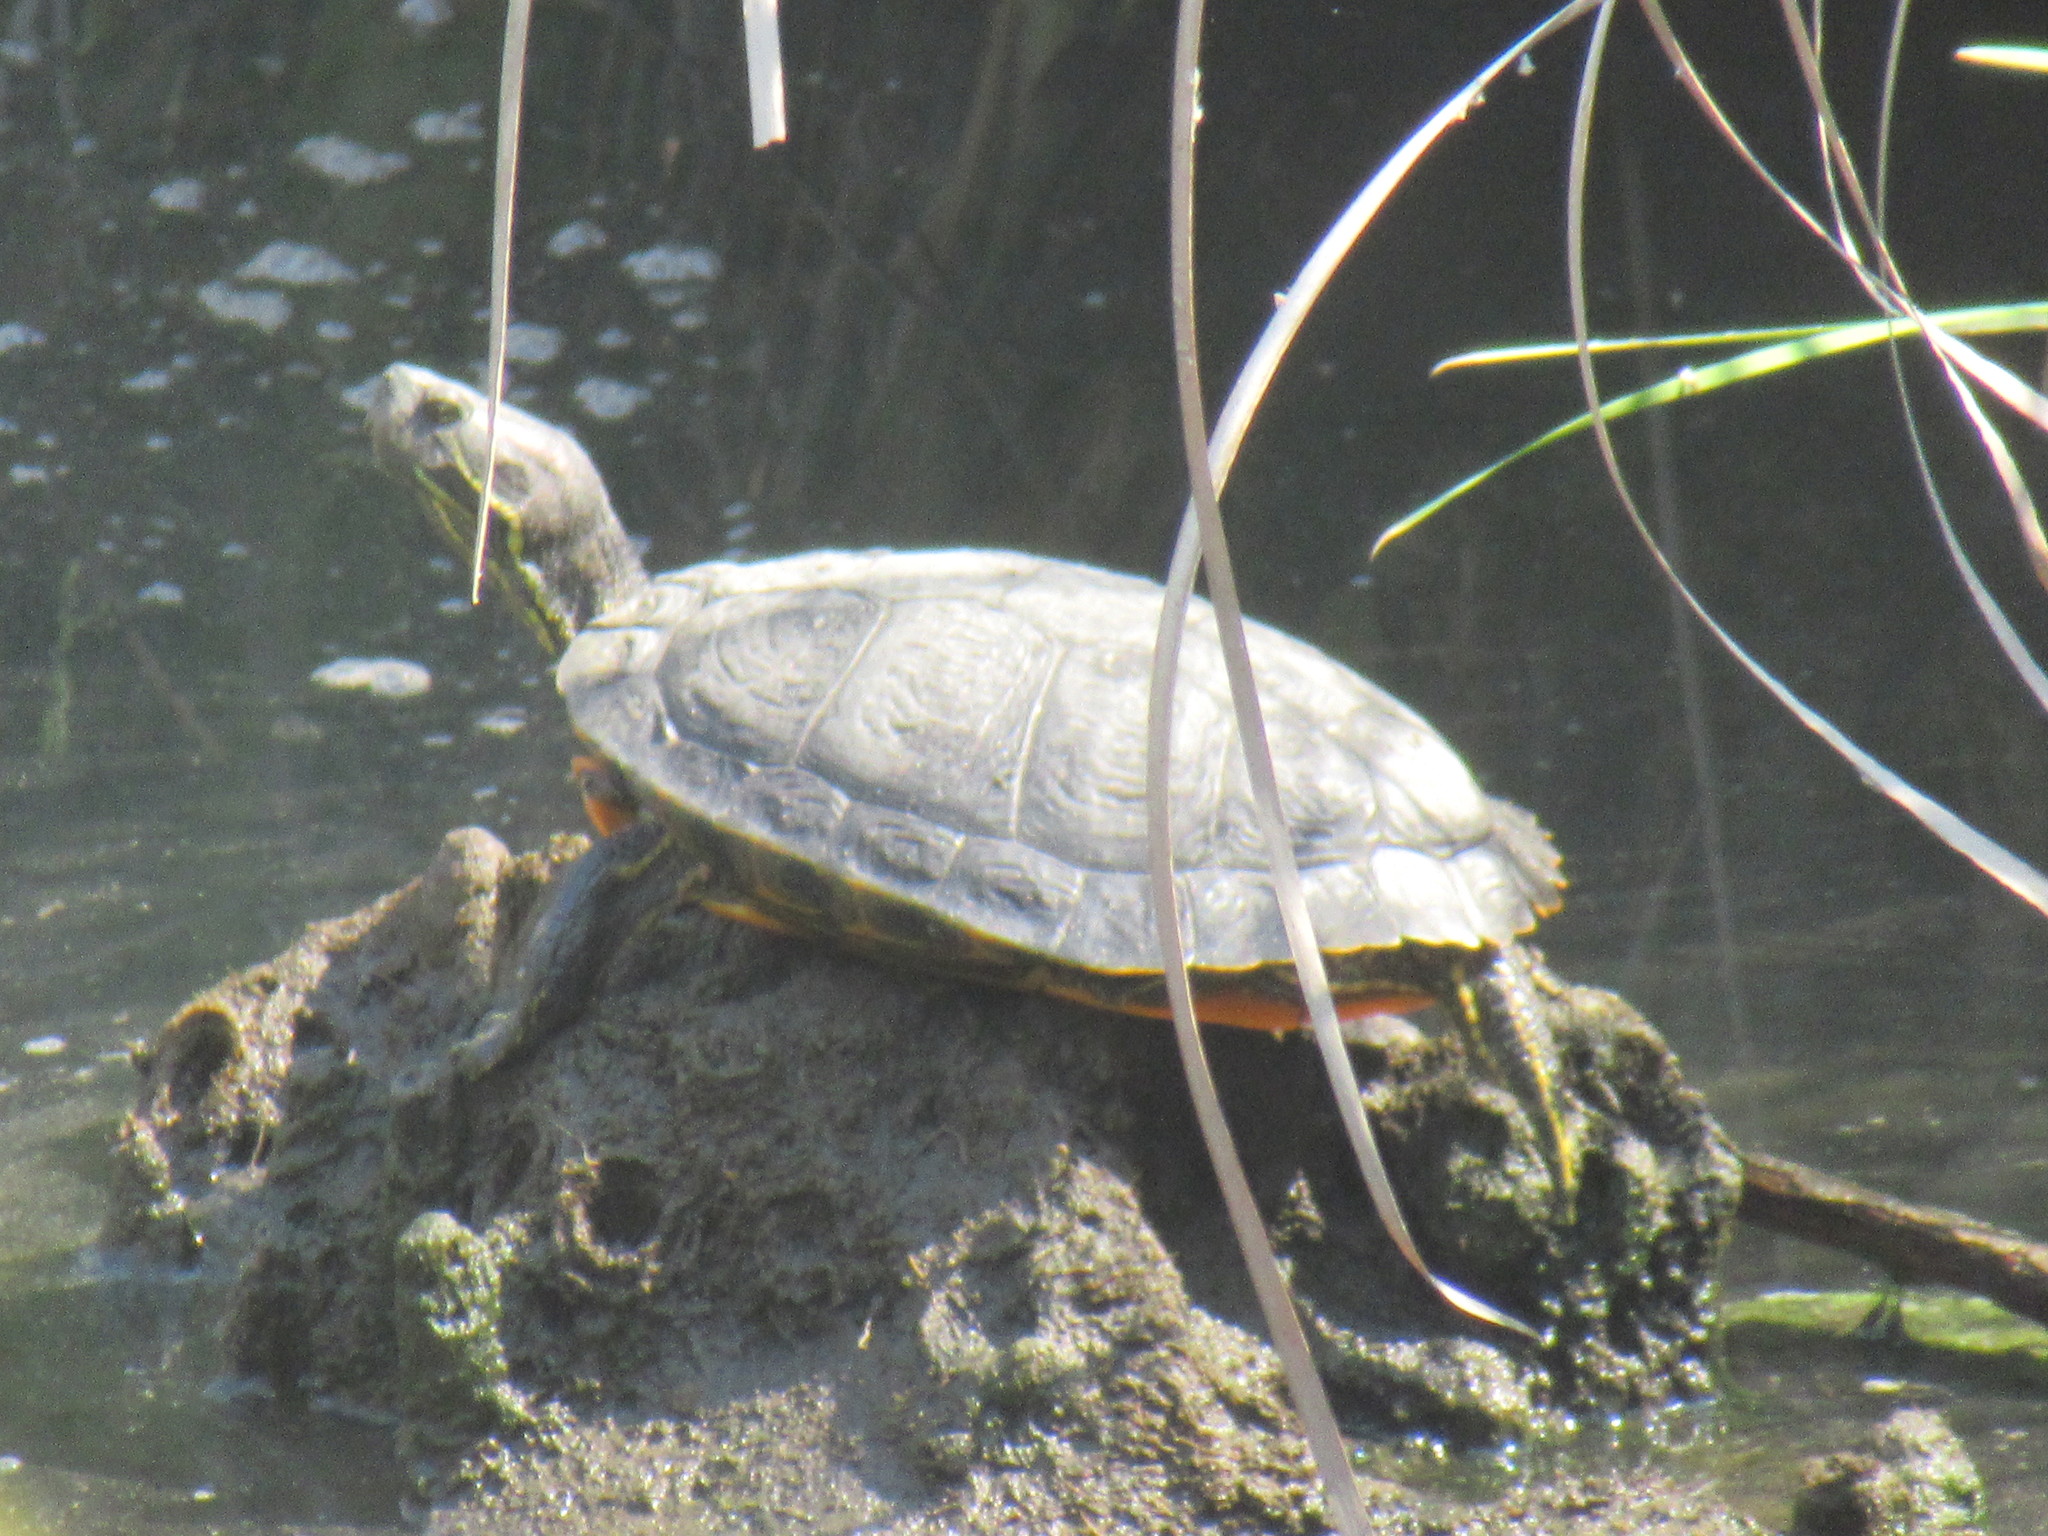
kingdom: Animalia
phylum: Chordata
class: Testudines
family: Emydidae
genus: Trachemys
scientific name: Trachemys scripta
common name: Slider
